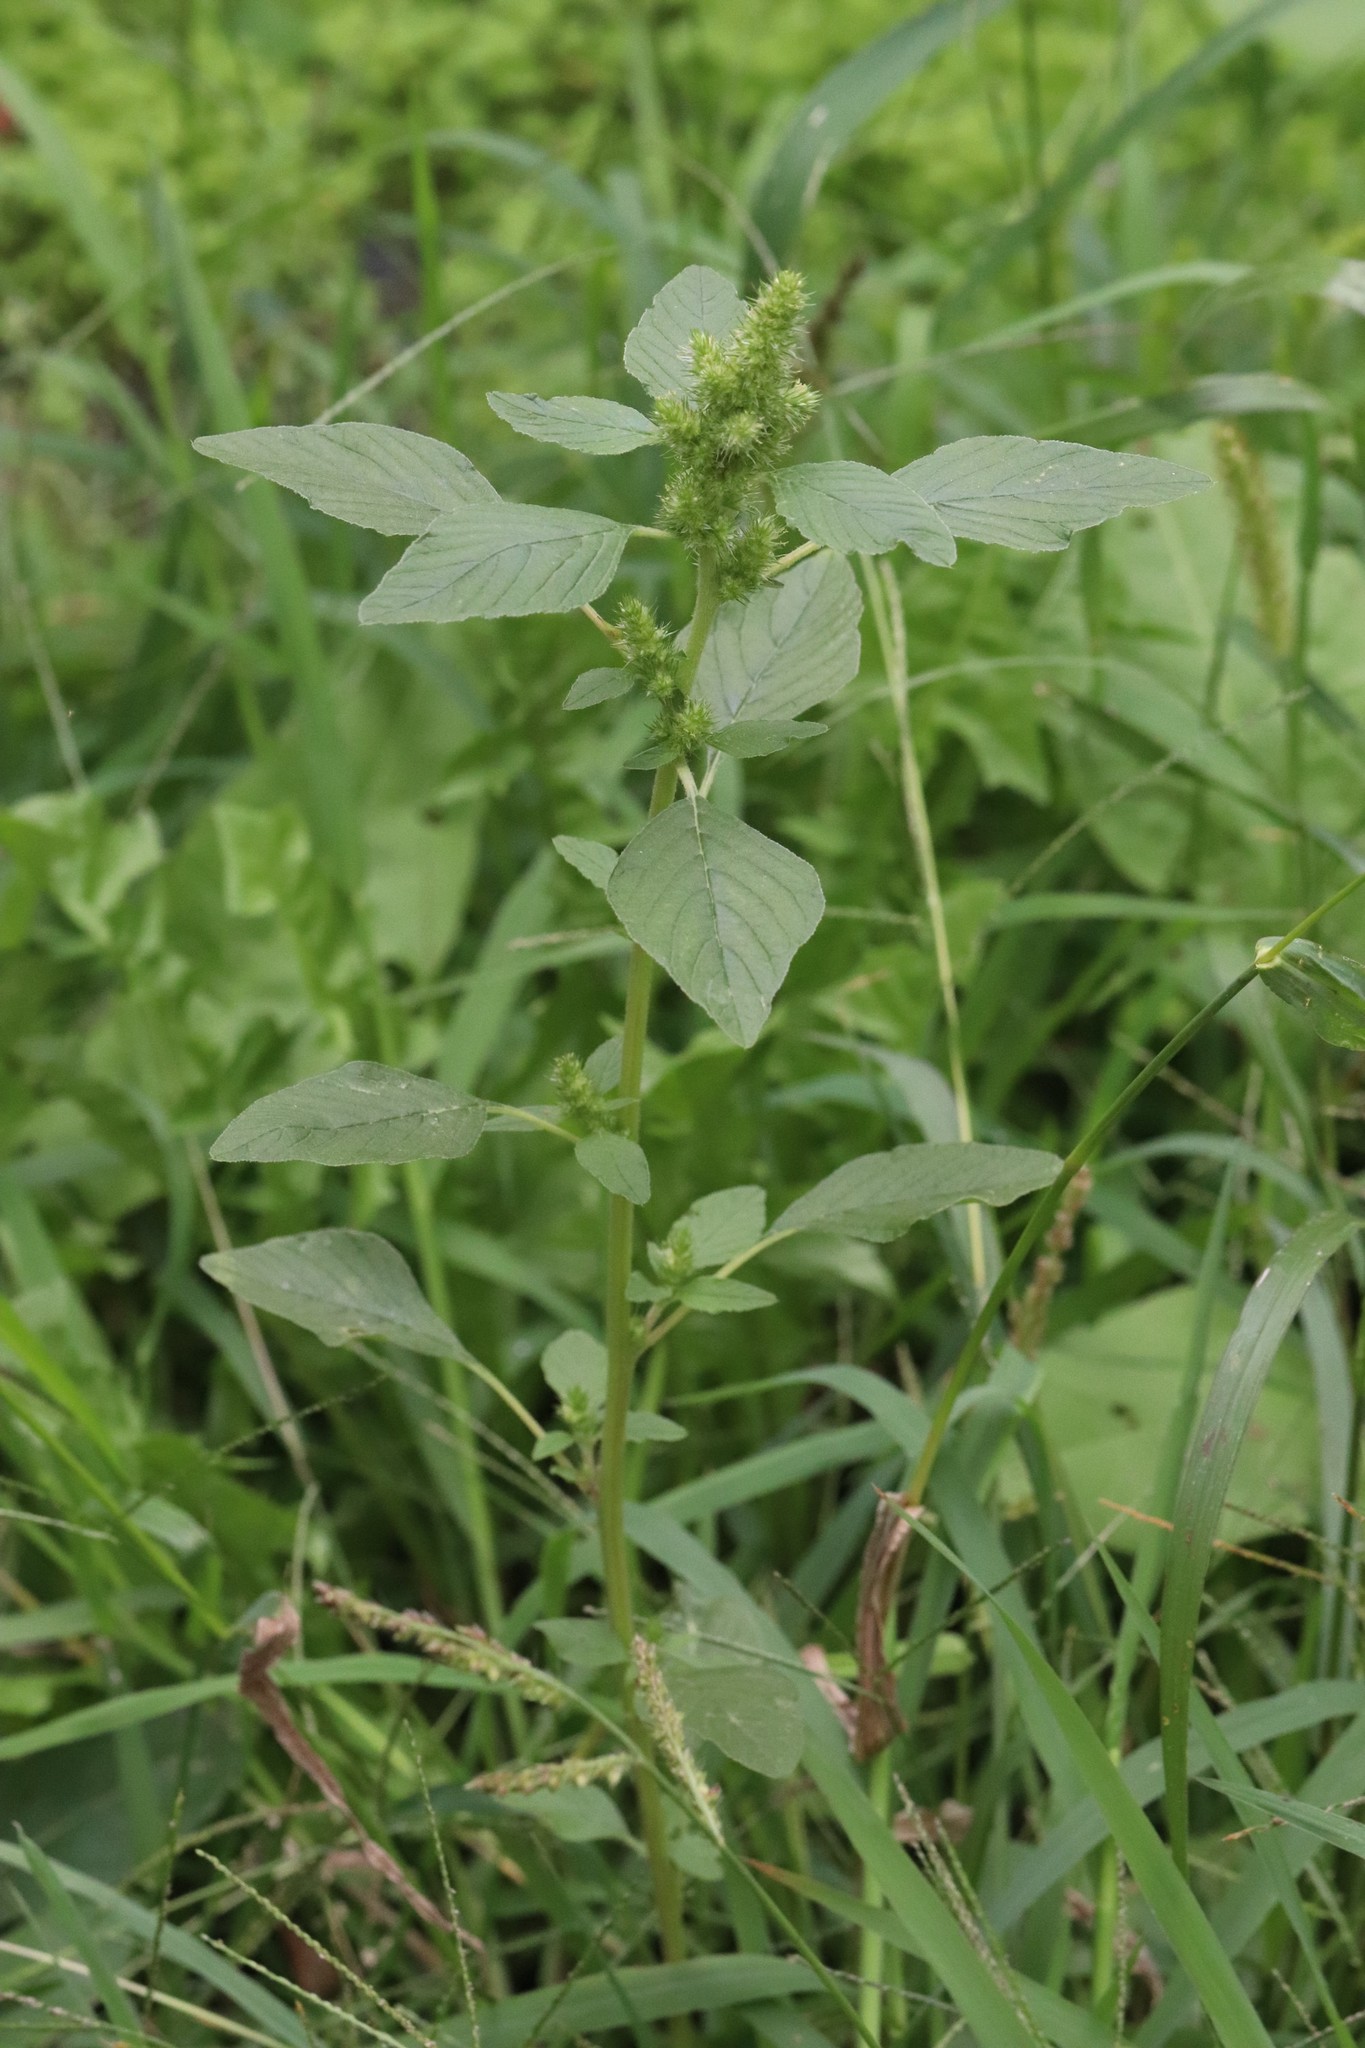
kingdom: Plantae
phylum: Tracheophyta
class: Magnoliopsida
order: Caryophyllales
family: Amaranthaceae
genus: Amaranthus
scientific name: Amaranthus retroflexus
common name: Redroot amaranth
